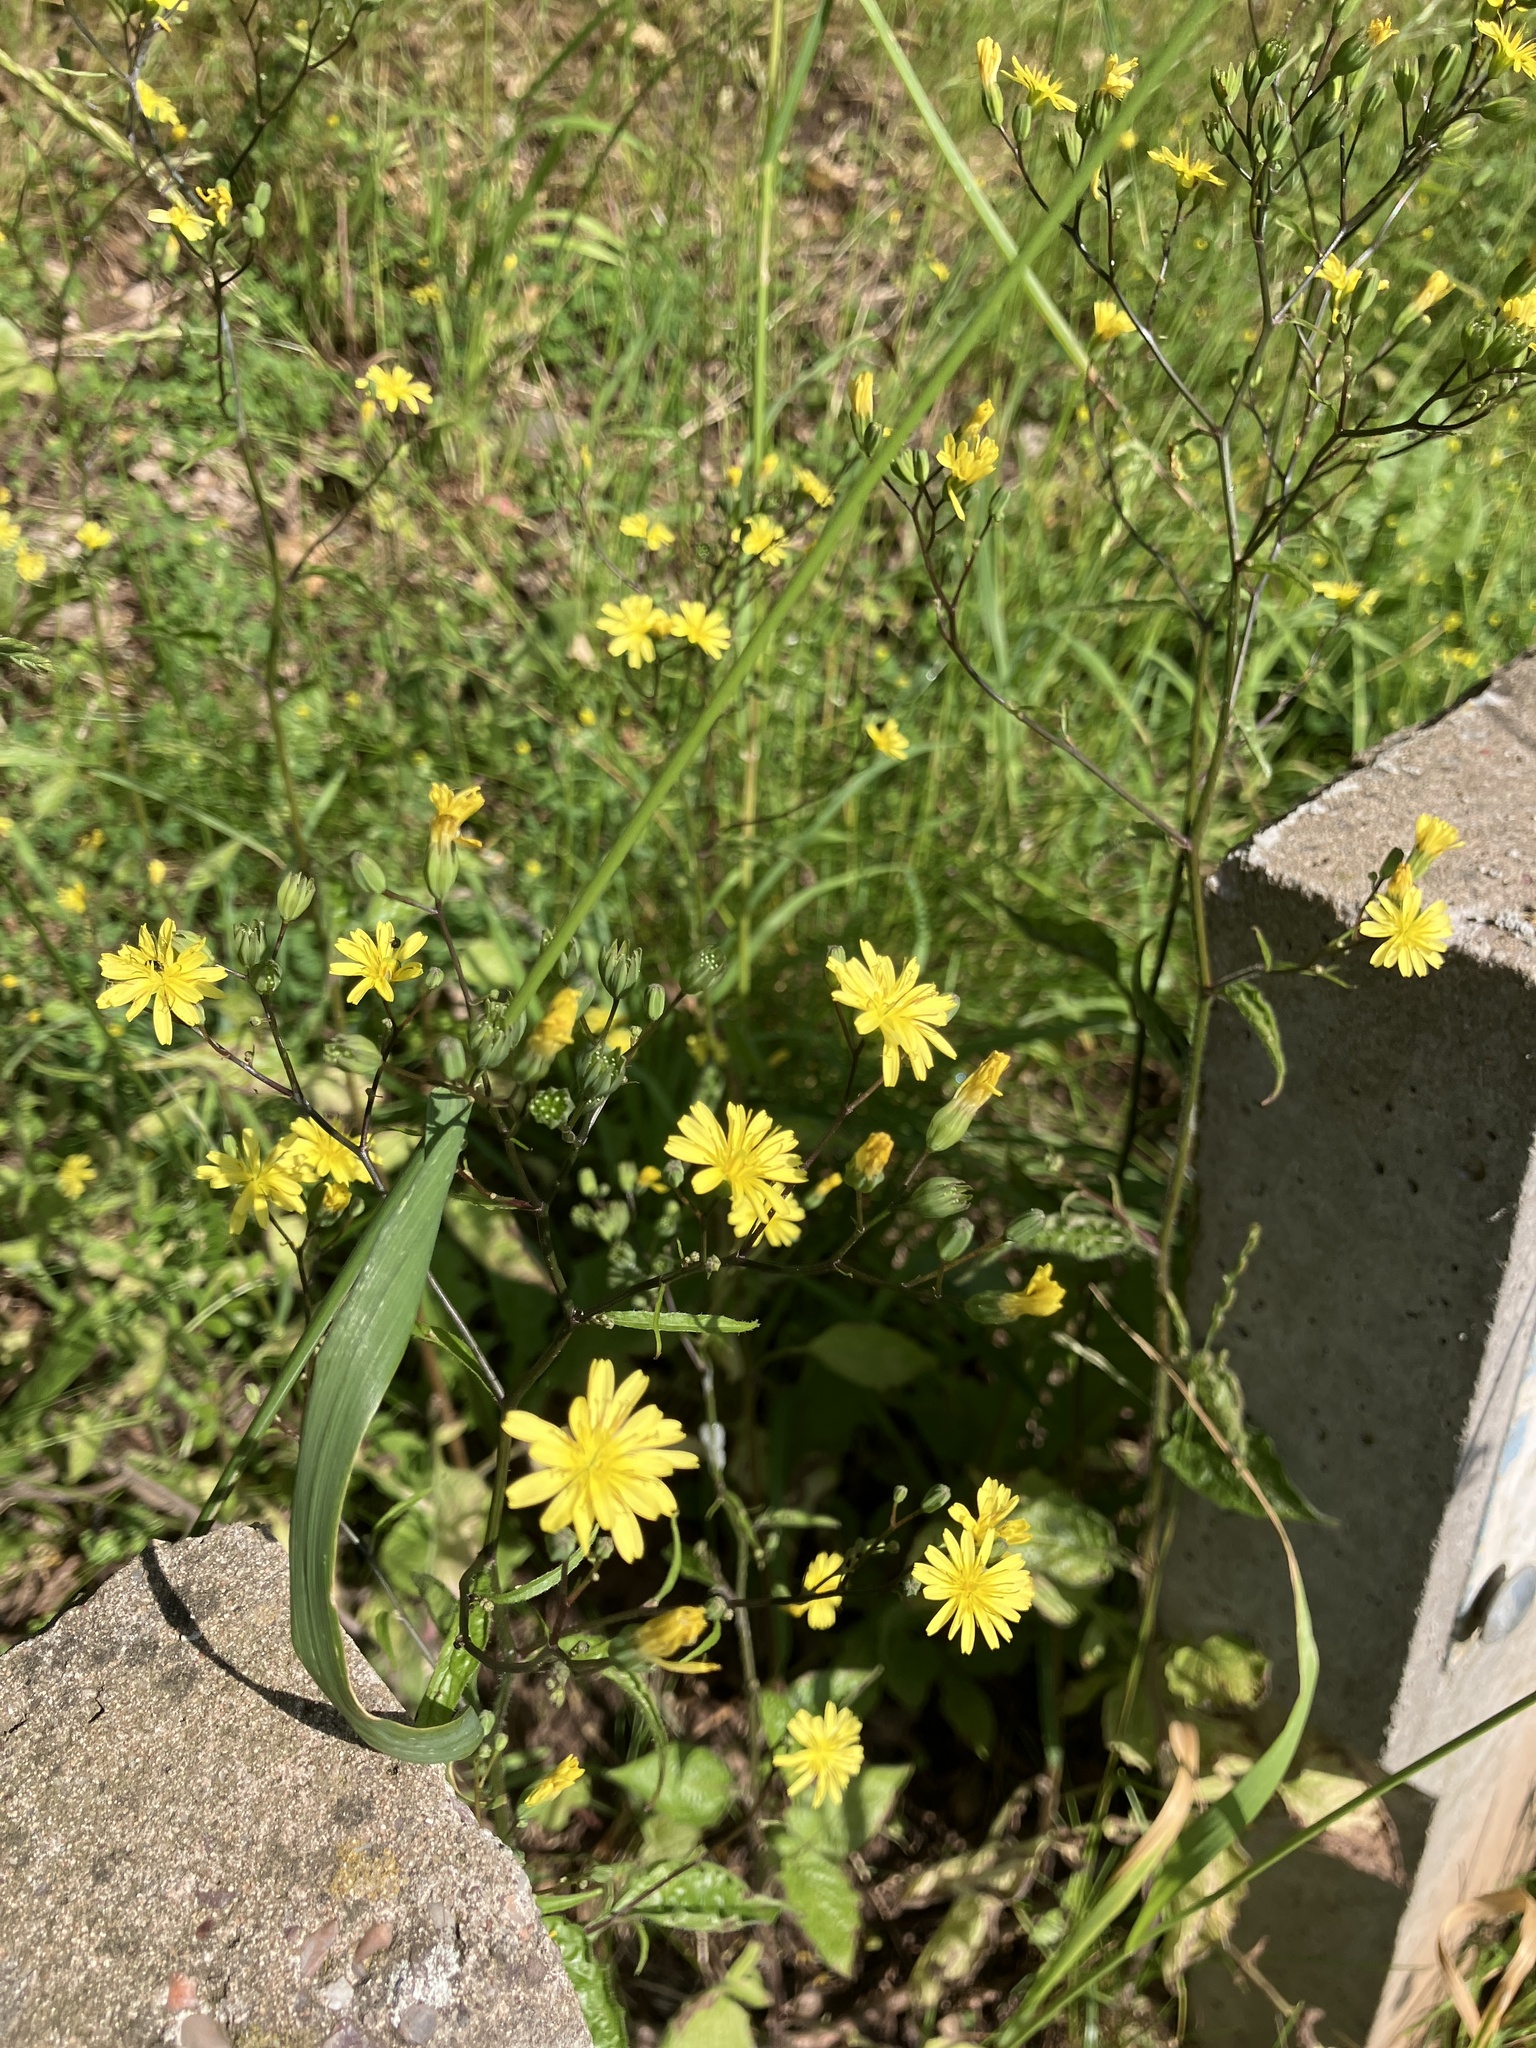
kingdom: Plantae
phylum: Tracheophyta
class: Magnoliopsida
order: Asterales
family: Asteraceae
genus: Lapsana
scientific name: Lapsana communis
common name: Nipplewort
